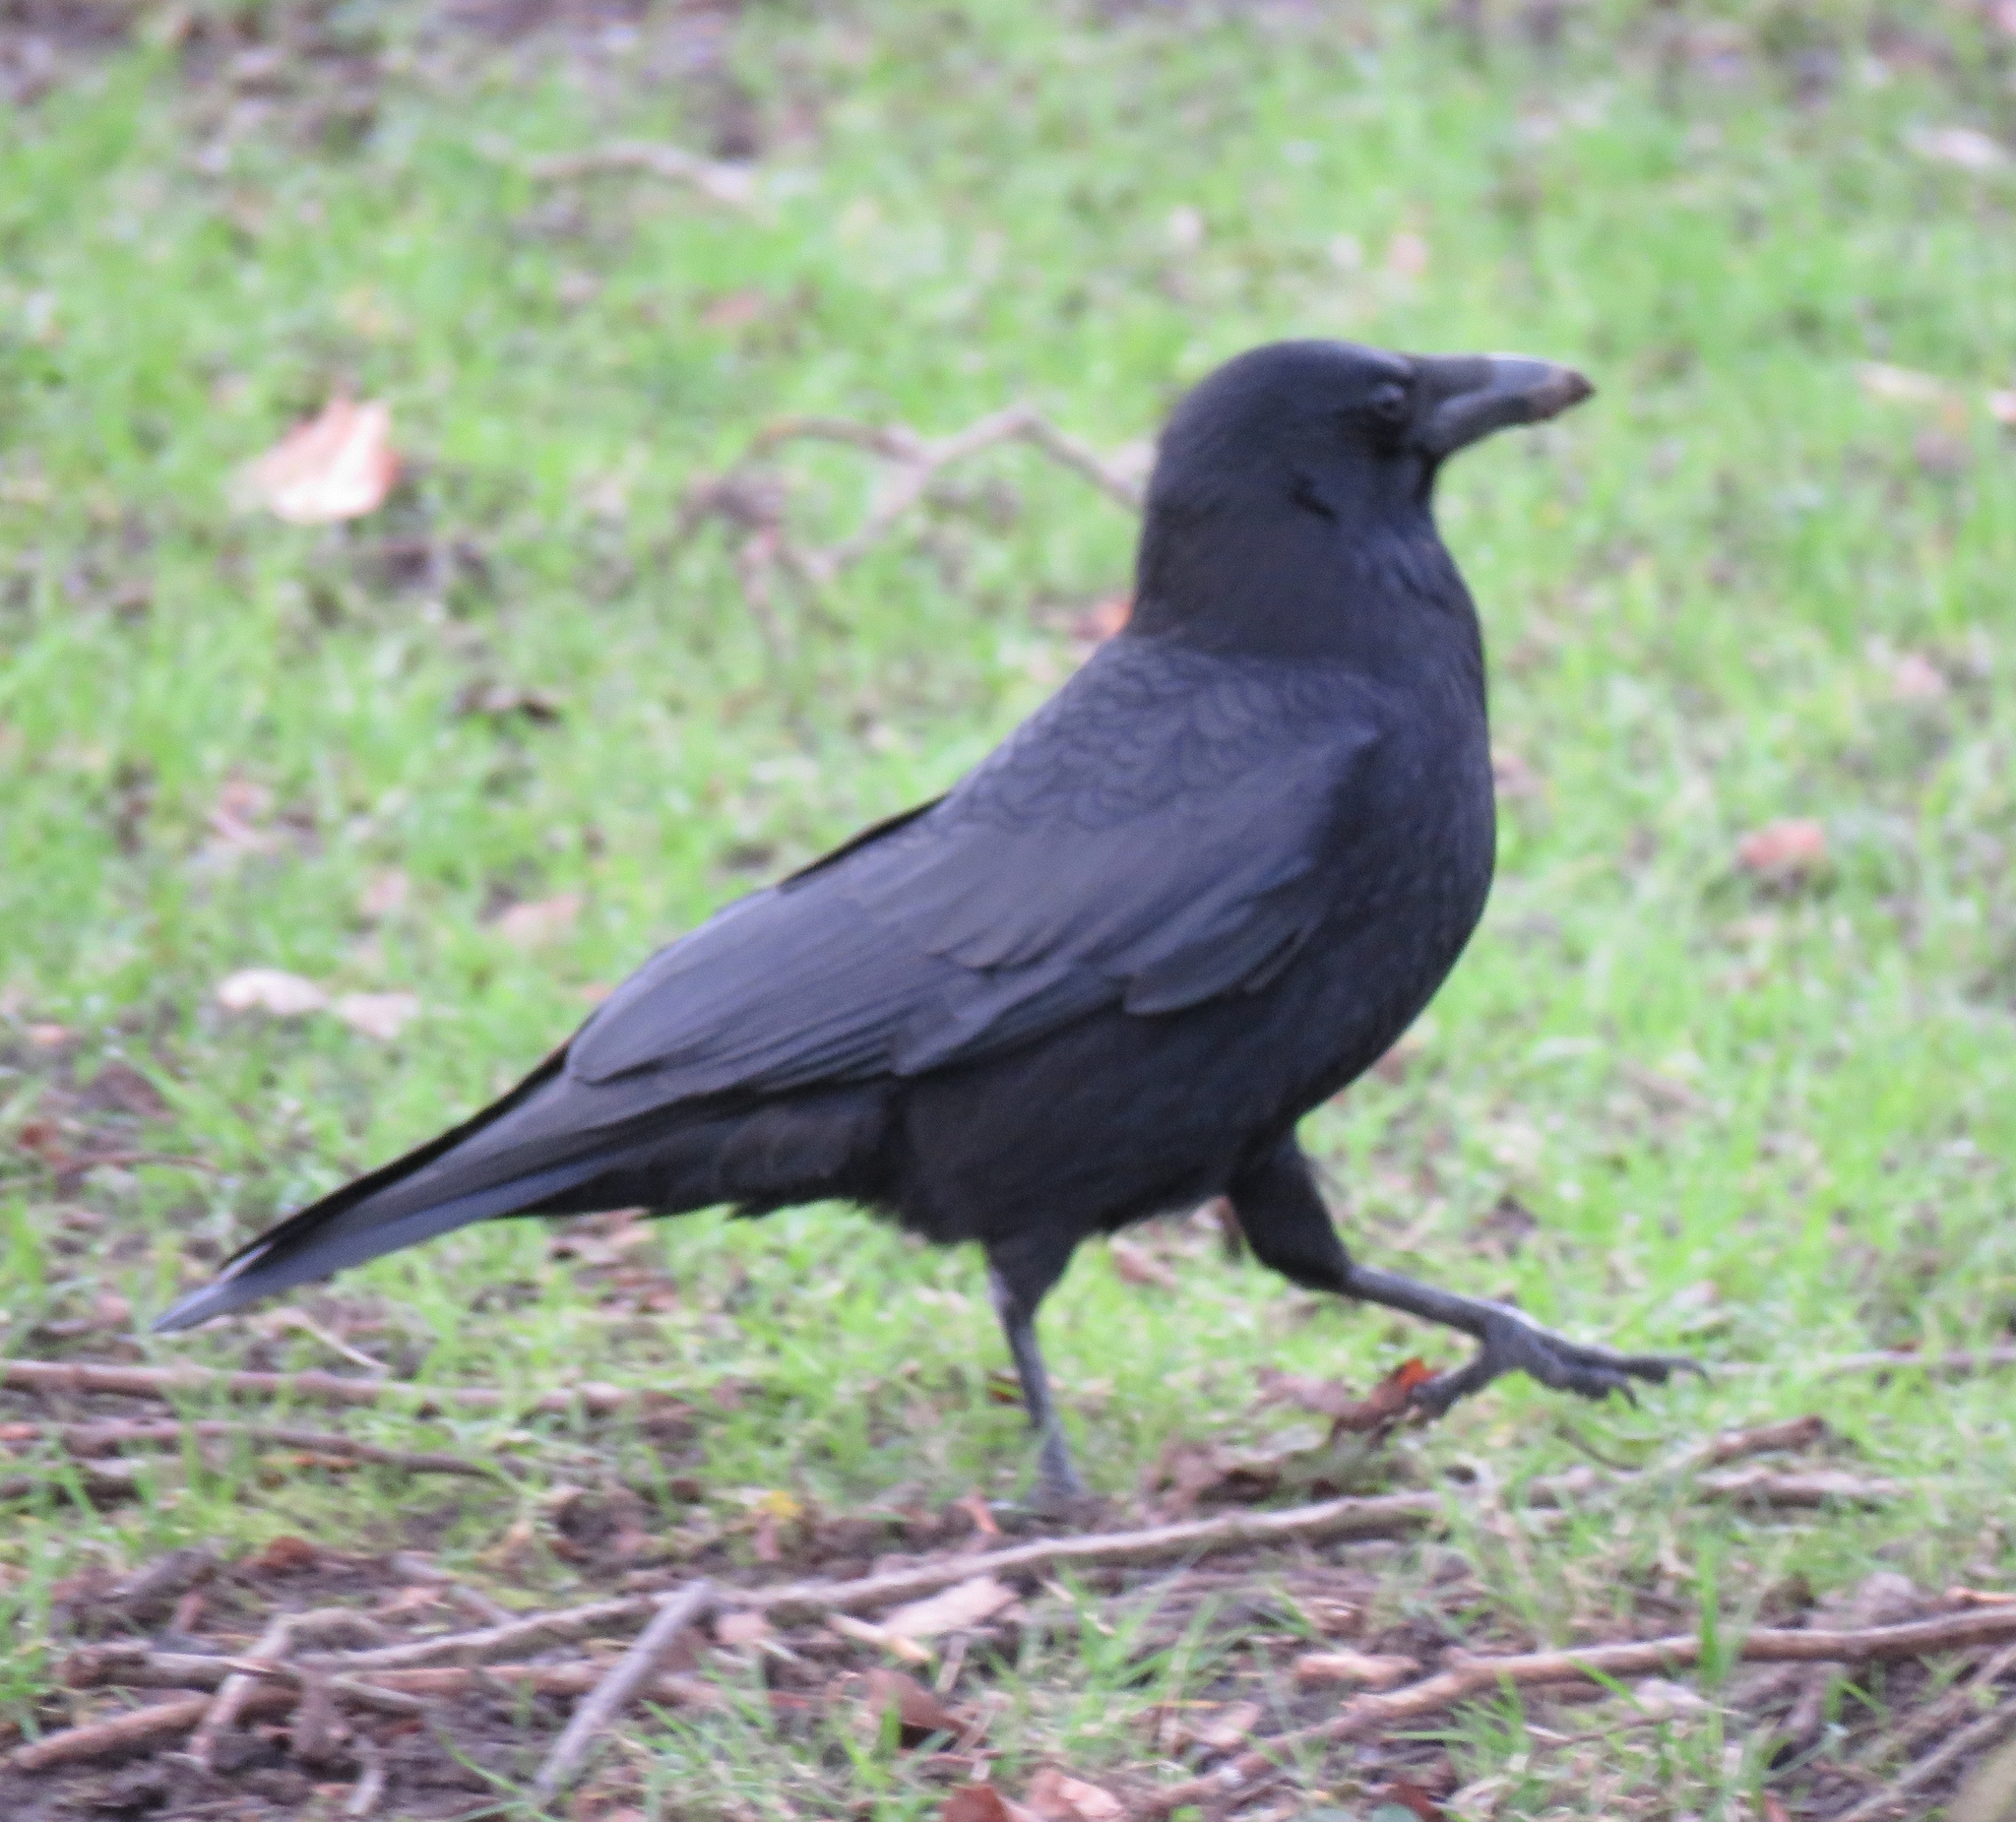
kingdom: Animalia
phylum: Chordata
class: Aves
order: Passeriformes
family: Corvidae
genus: Corvus
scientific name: Corvus corone
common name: Carrion crow
